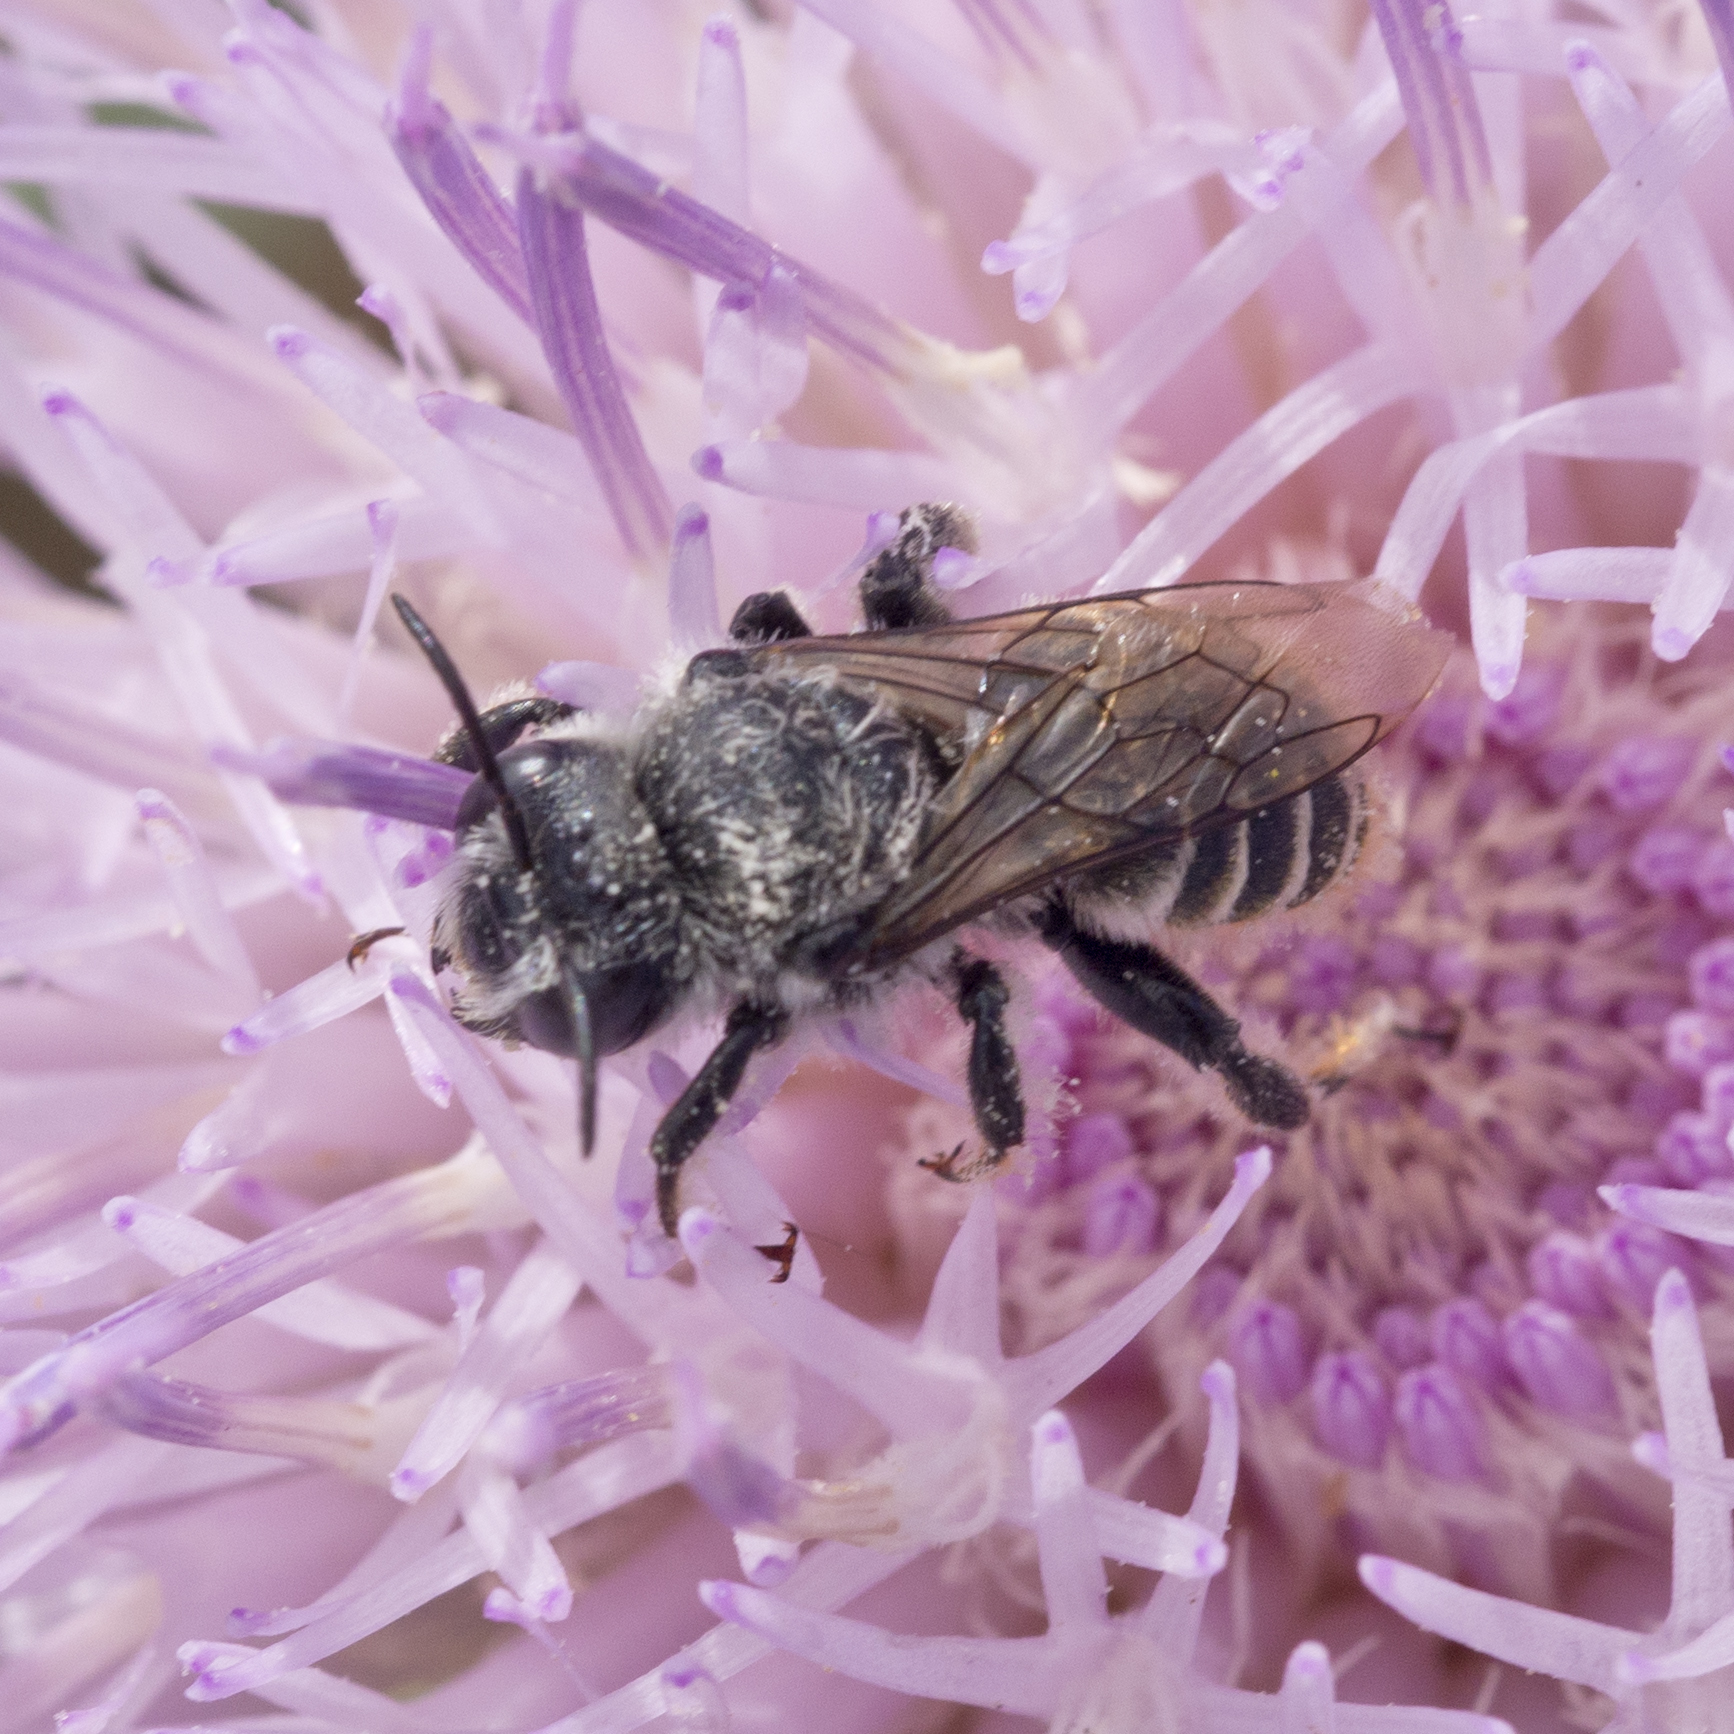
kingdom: Animalia
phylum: Arthropoda
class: Insecta
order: Hymenoptera
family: Megachilidae
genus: Lithurgopsis
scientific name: Lithurgopsis apicalis
